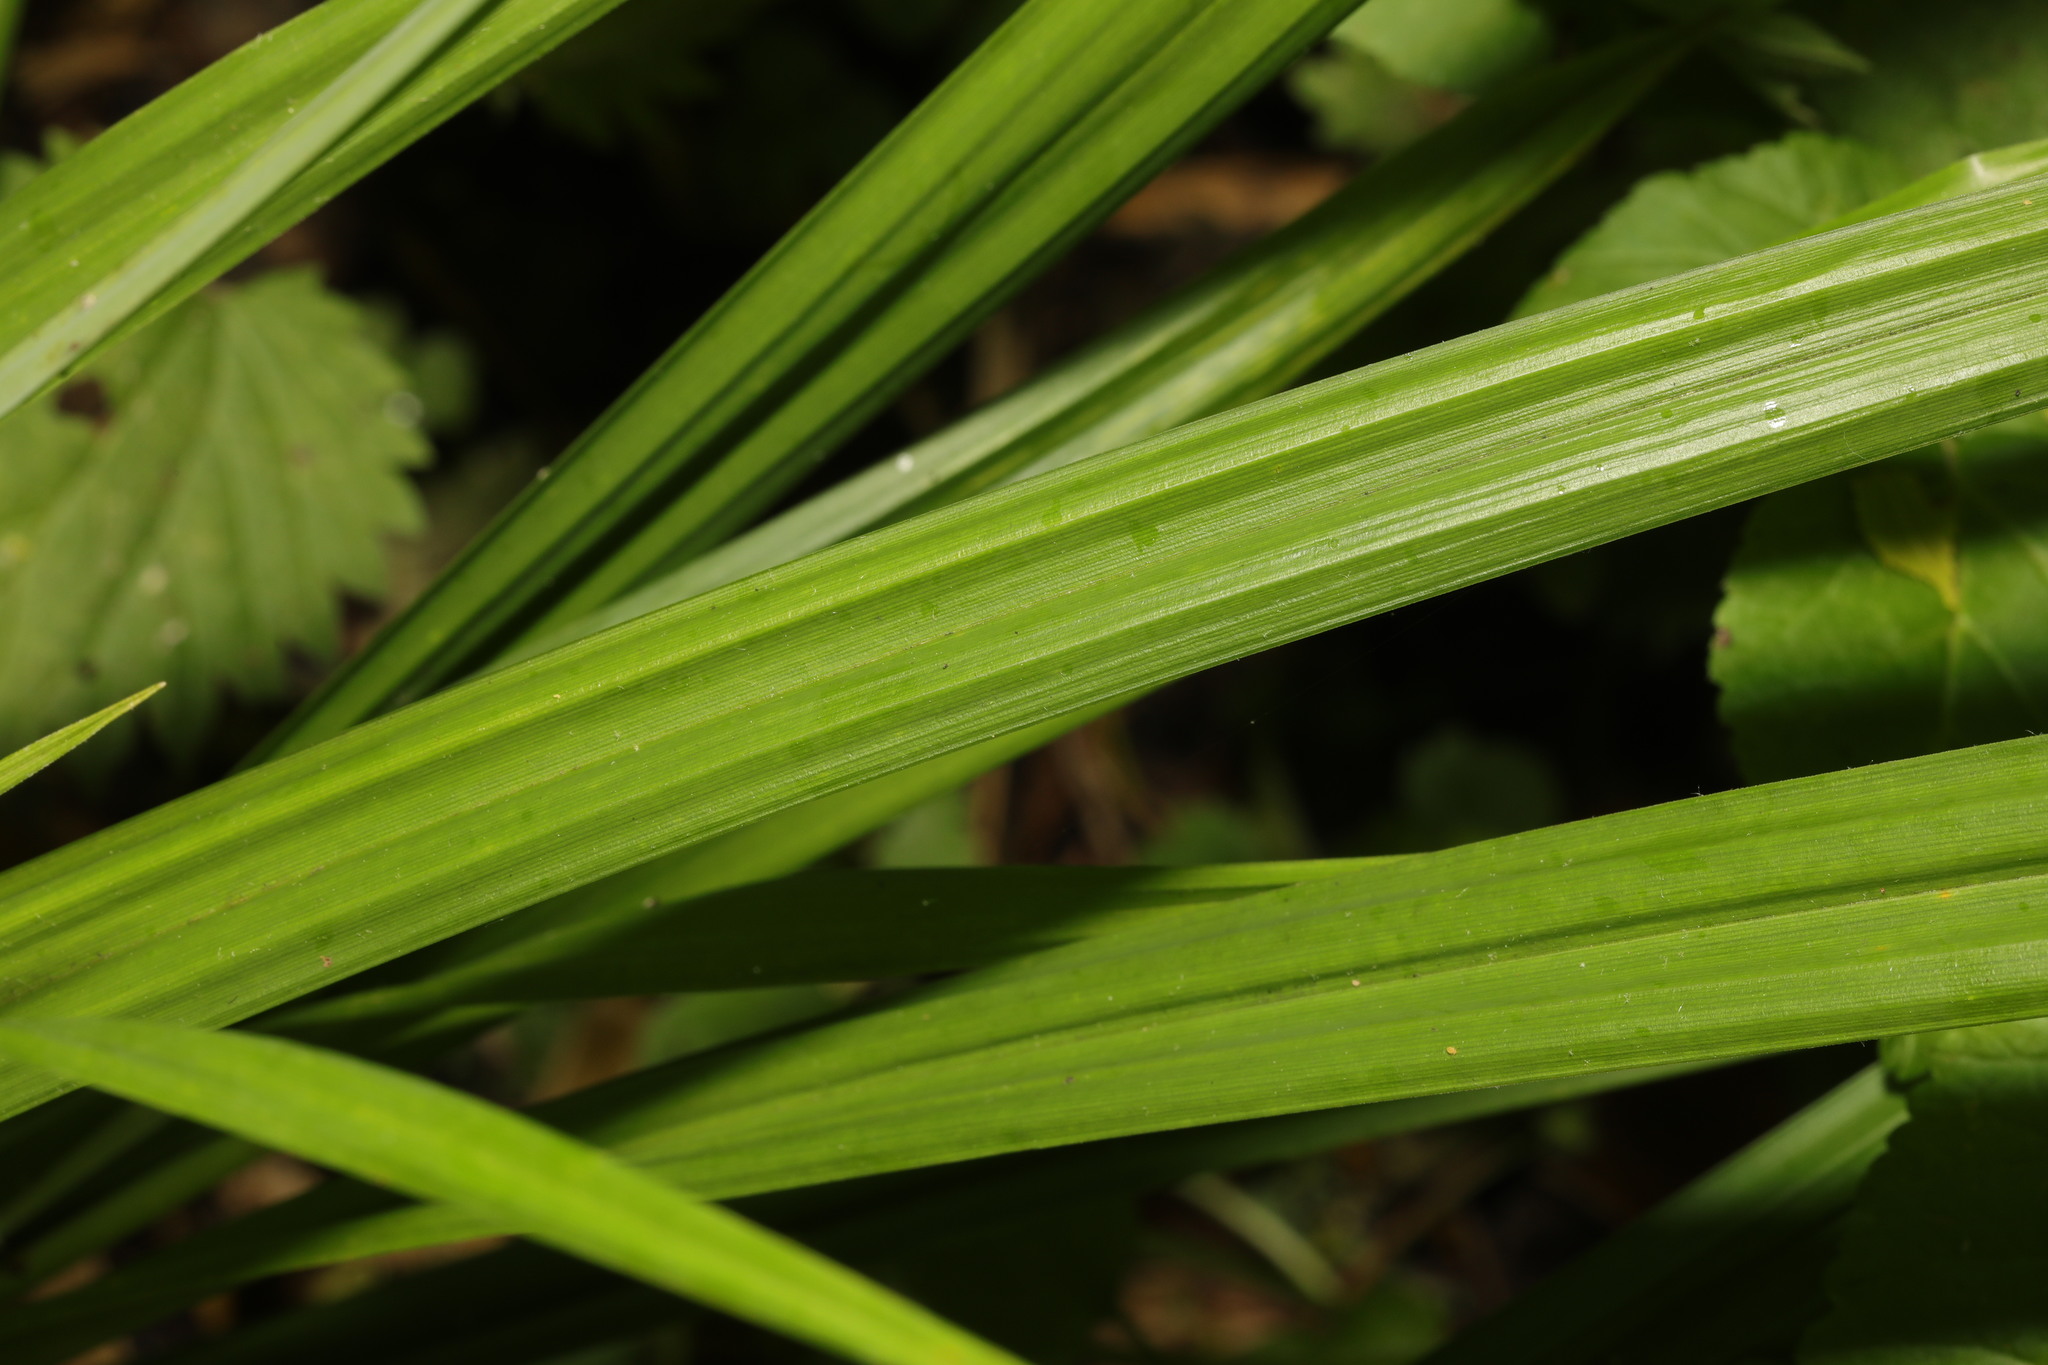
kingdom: Plantae
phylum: Tracheophyta
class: Liliopsida
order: Poales
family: Cyperaceae
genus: Carex
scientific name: Carex pendula
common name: Pendulous sedge
